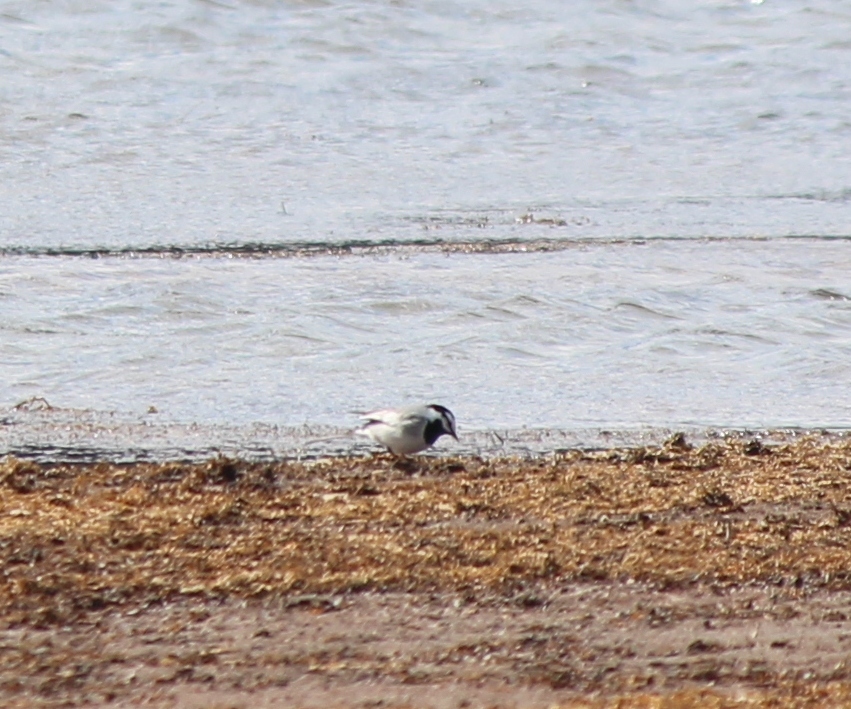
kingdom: Animalia
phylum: Chordata
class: Aves
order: Passeriformes
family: Motacillidae
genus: Motacilla
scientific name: Motacilla alba
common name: White wagtail
